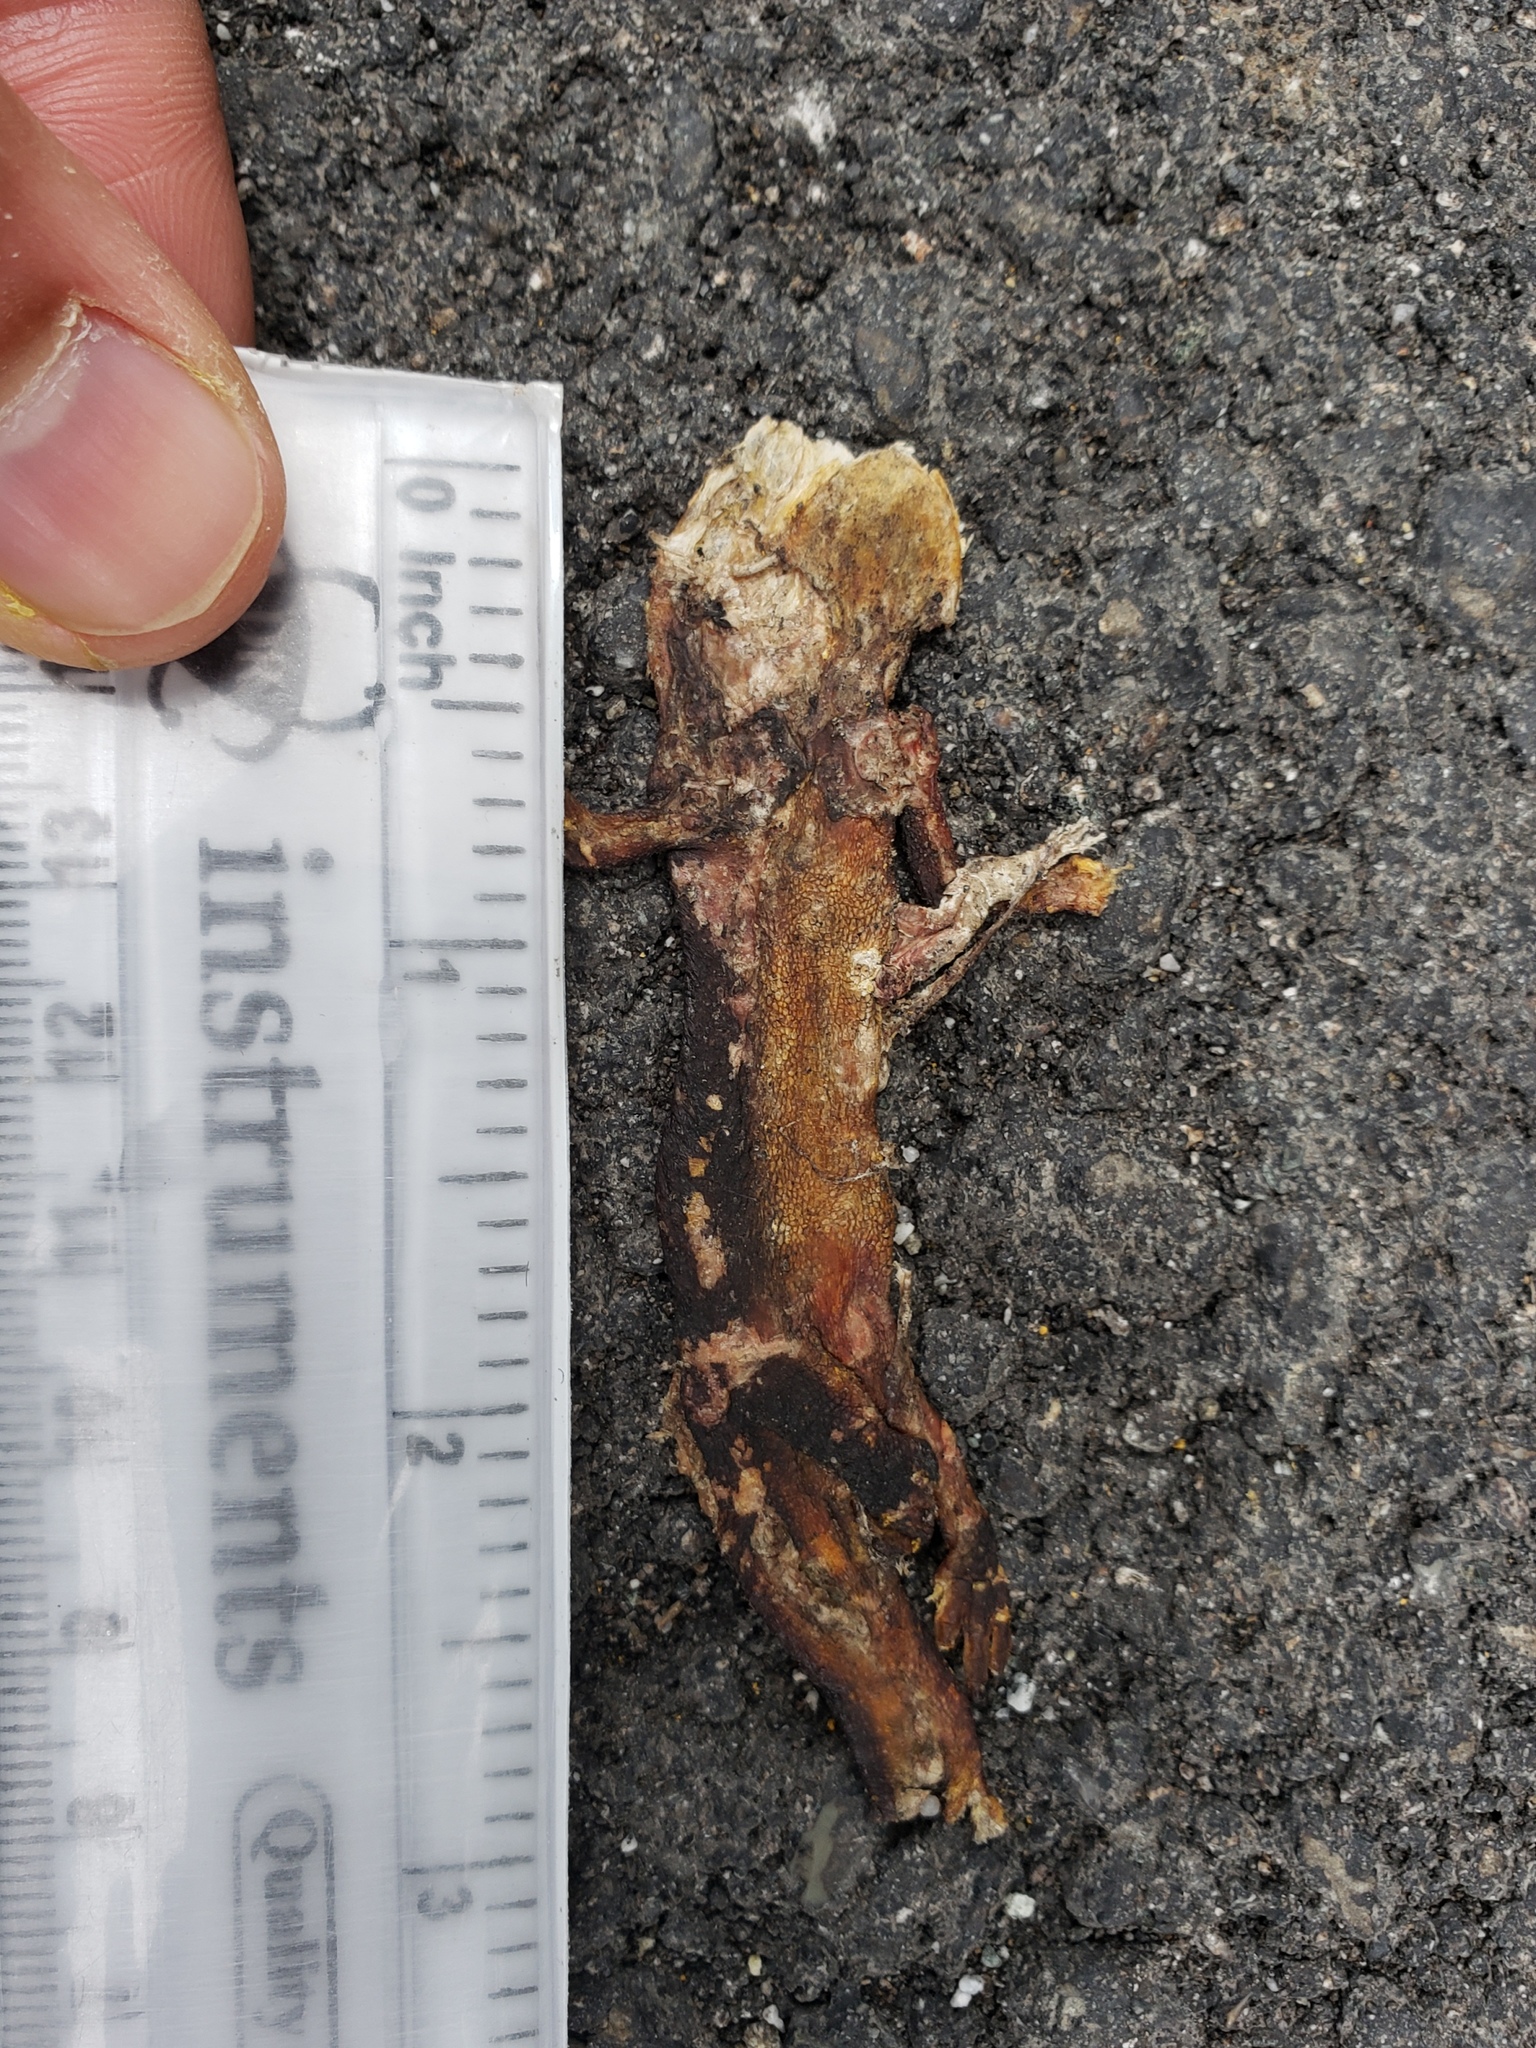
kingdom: Animalia
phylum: Chordata
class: Amphibia
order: Caudata
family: Salamandridae
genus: Taricha
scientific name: Taricha
